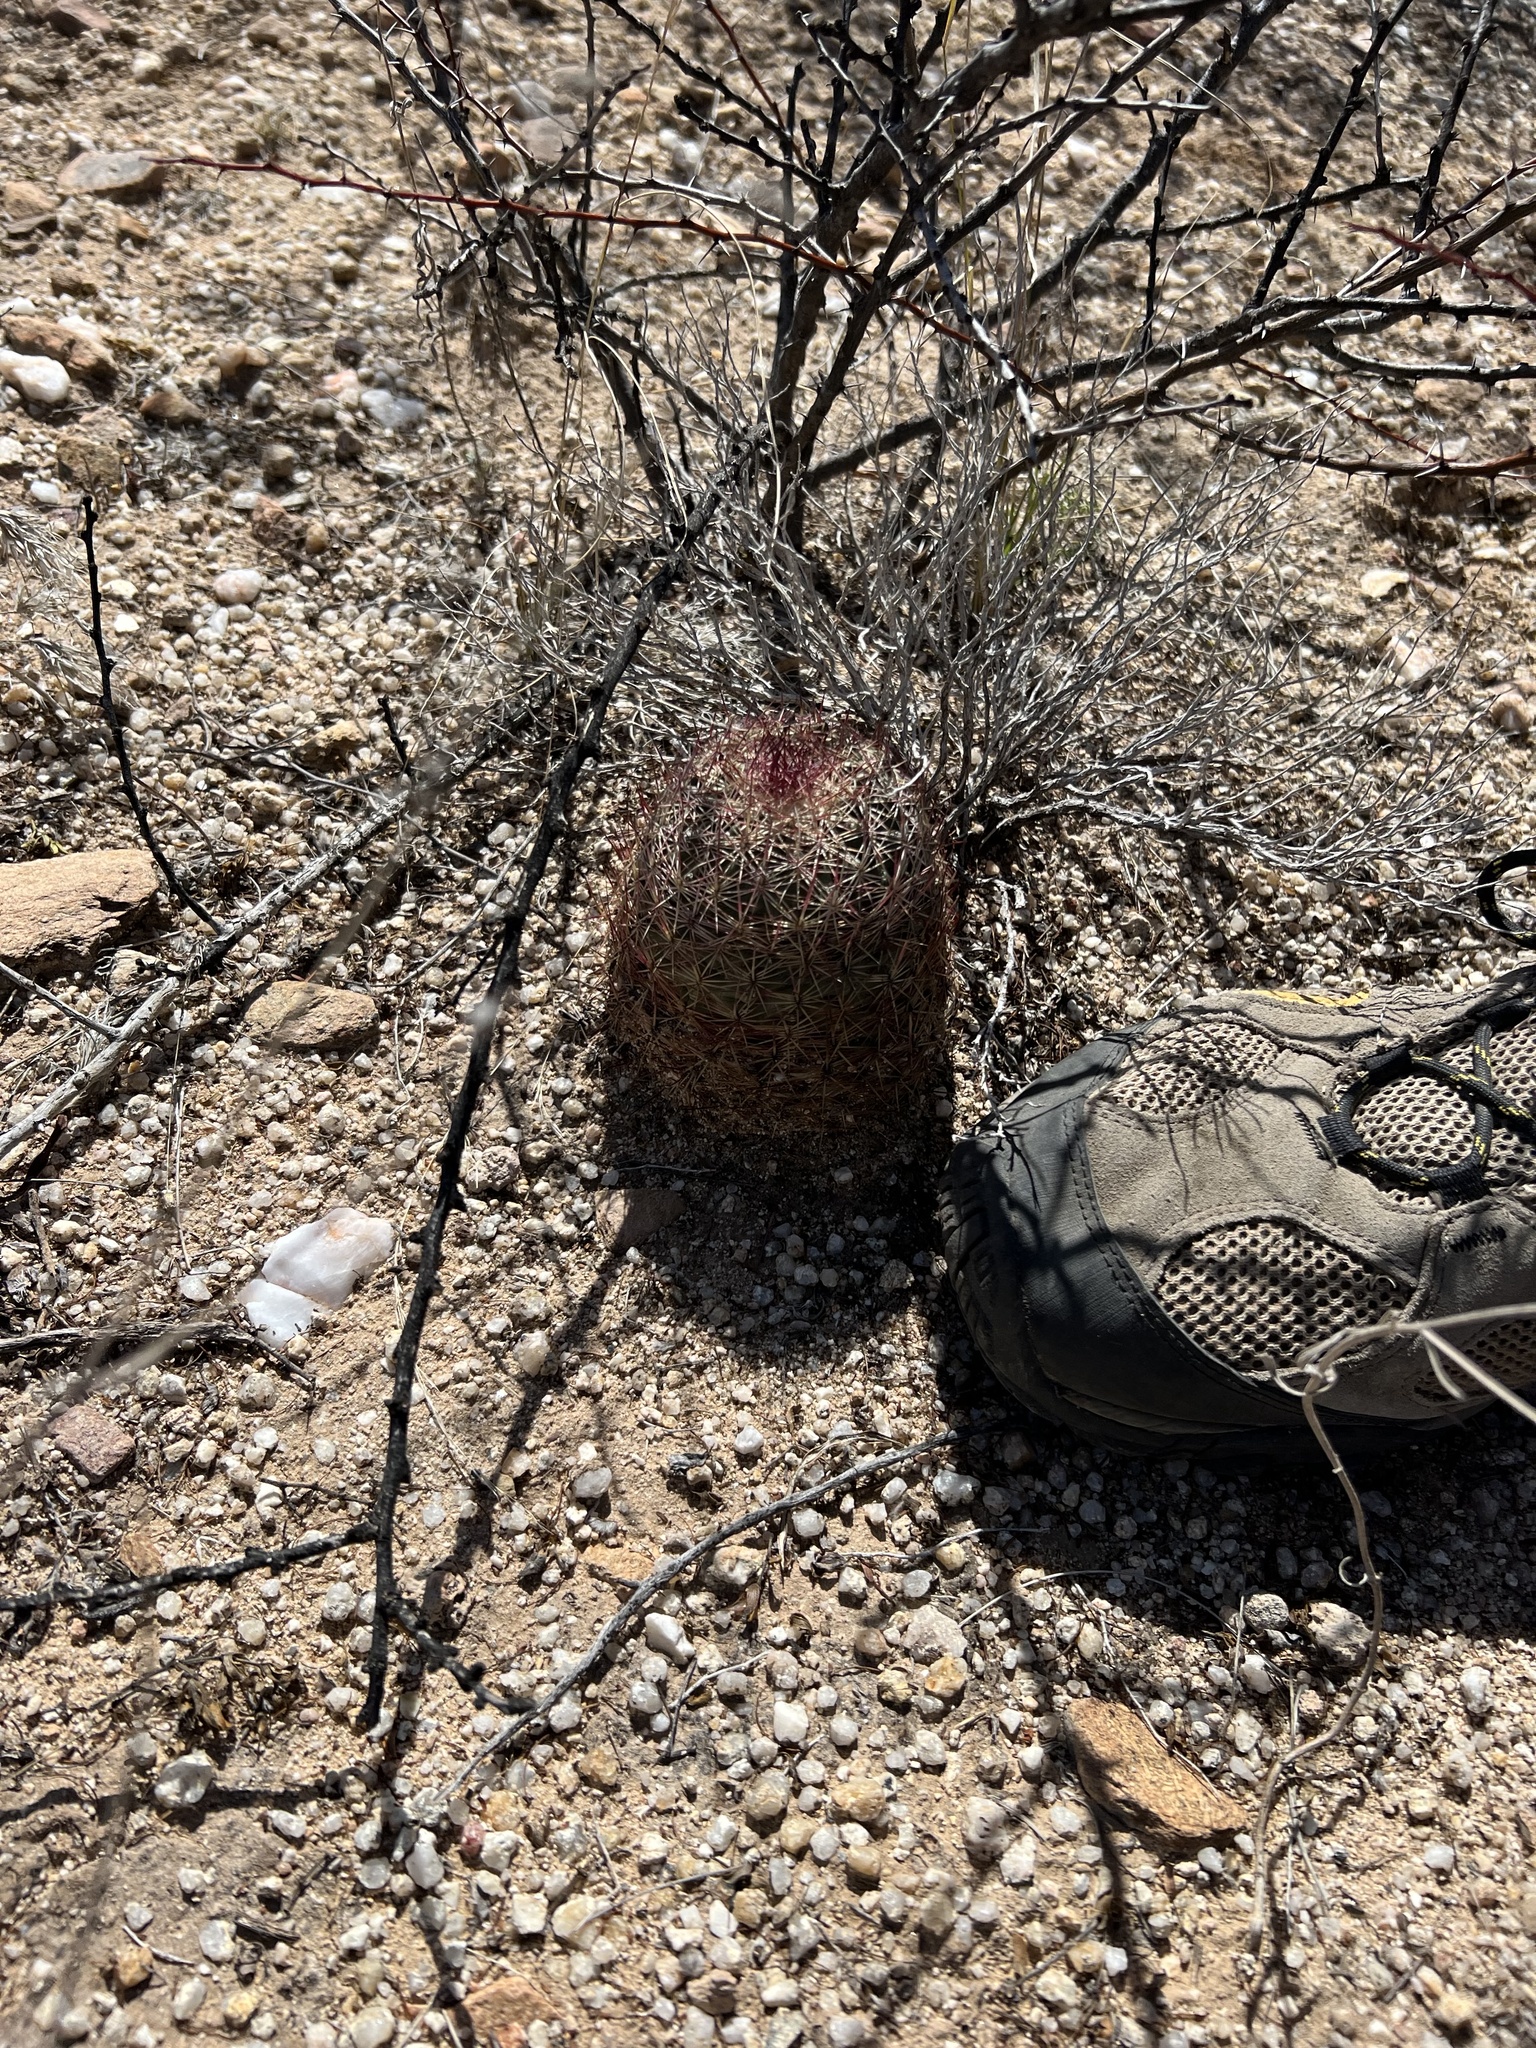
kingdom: Plantae
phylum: Tracheophyta
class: Magnoliopsida
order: Caryophyllales
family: Cactaceae
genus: Sclerocactus
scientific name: Sclerocactus johnsonii
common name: Eight-spine fishhook cactus
